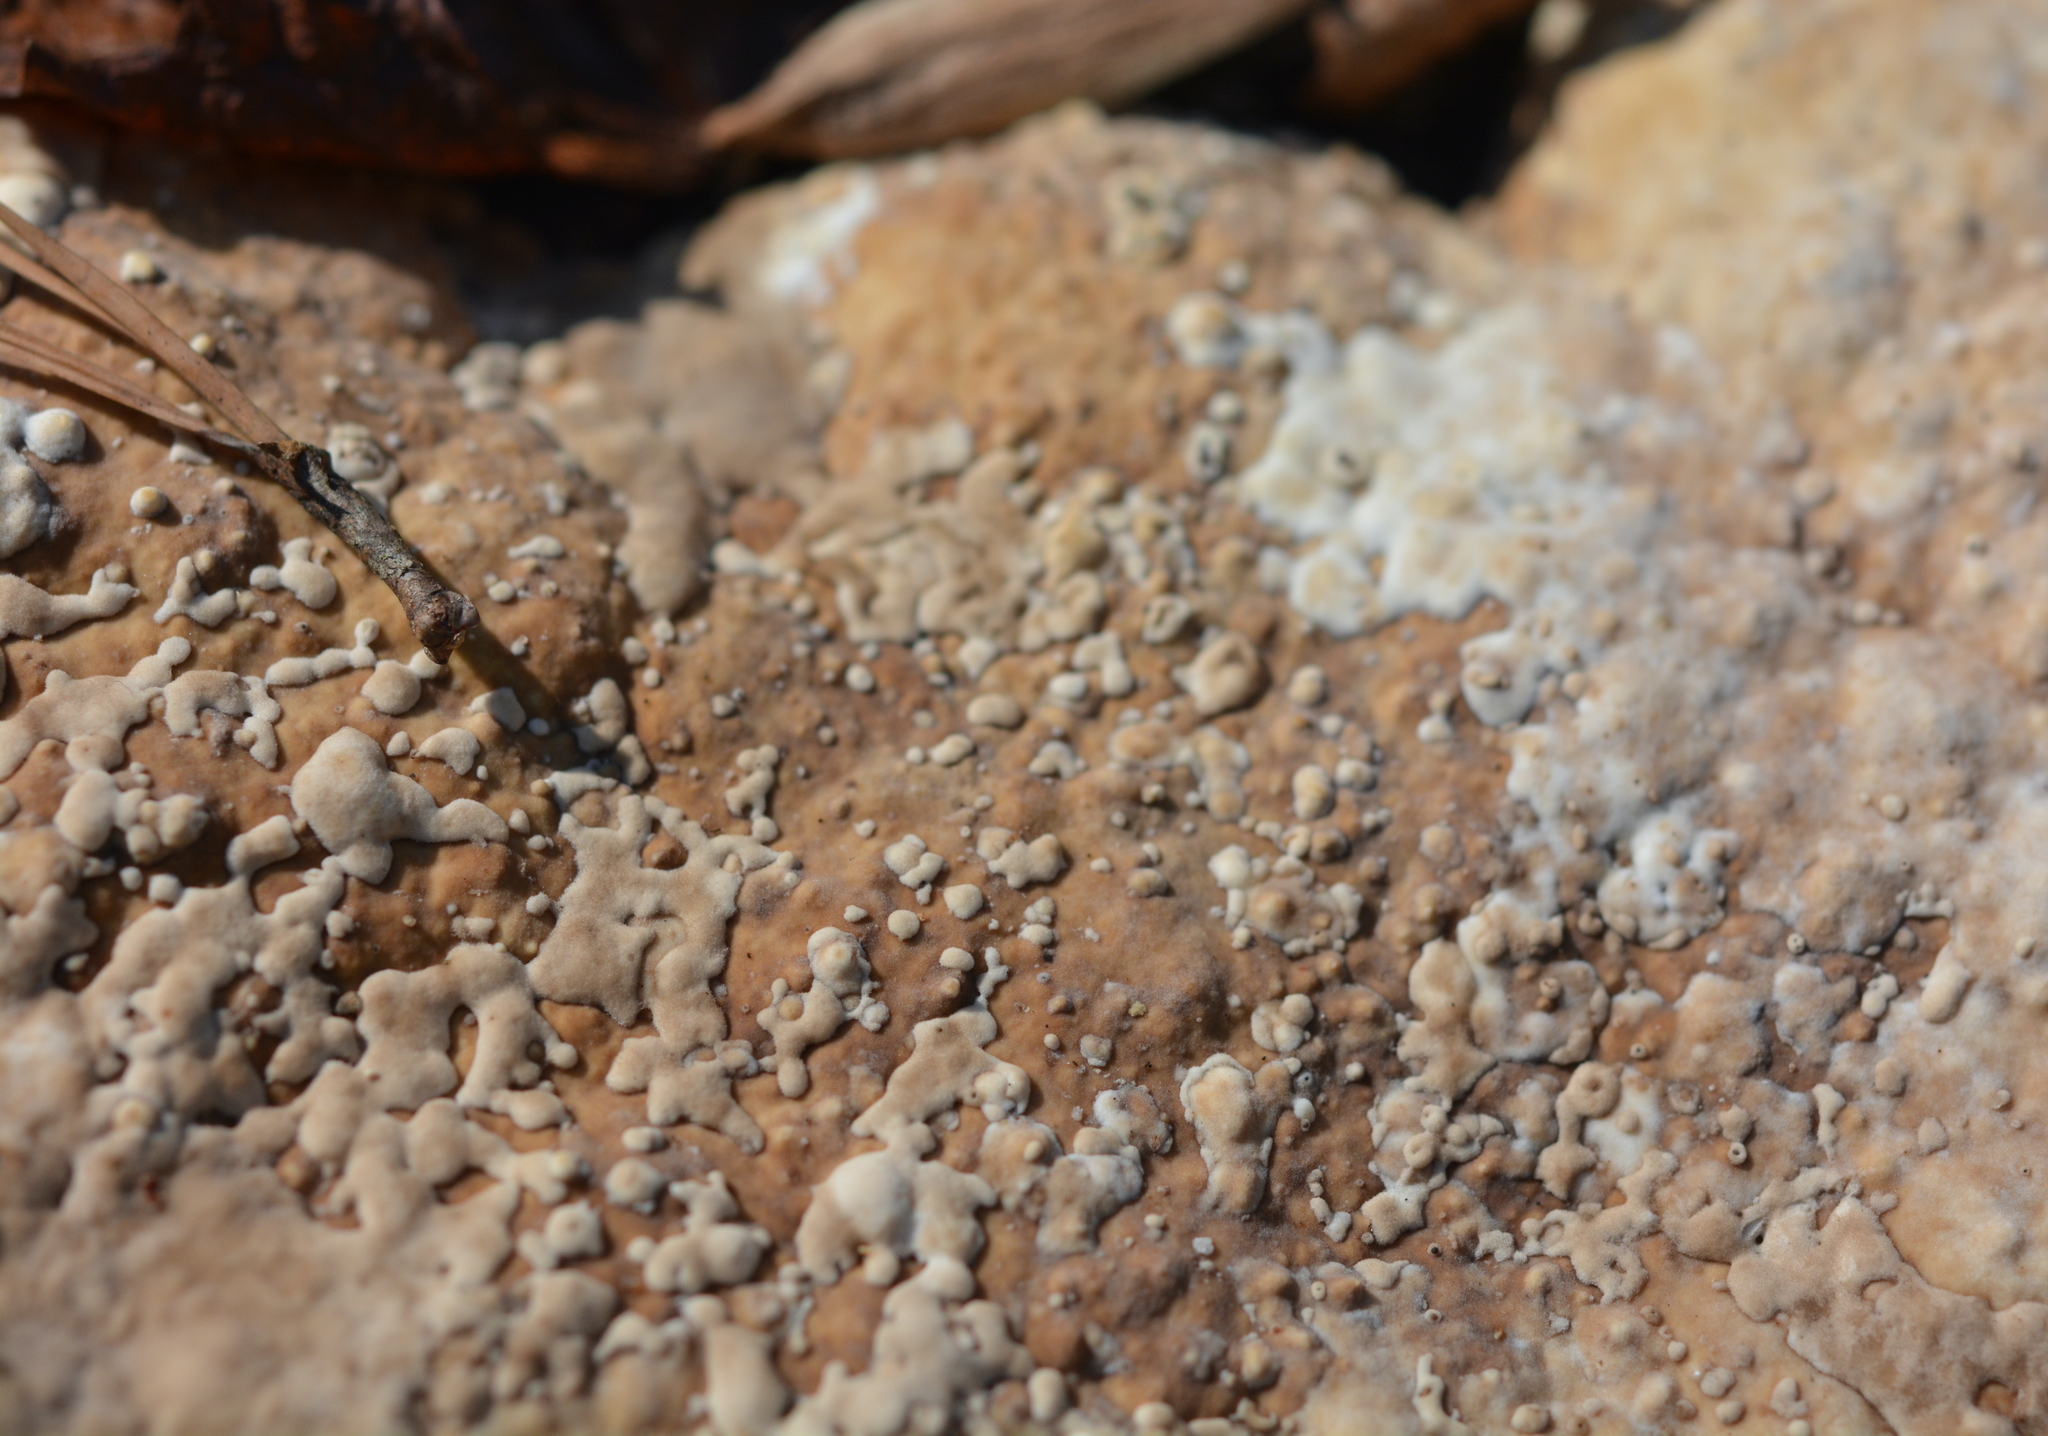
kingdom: Fungi
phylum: Basidiomycota
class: Agaricomycetes
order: Polyporales
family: Polyporaceae
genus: Trametes
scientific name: Trametes lactinea
